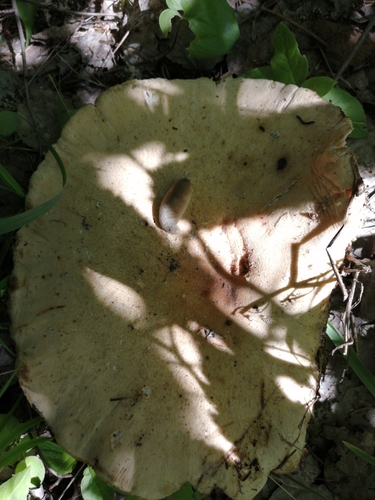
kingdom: Fungi
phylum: Basidiomycota
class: Agaricomycetes
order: Gloeophyllales
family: Gloeophyllaceae
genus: Neolentinus
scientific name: Neolentinus cyathiformis
